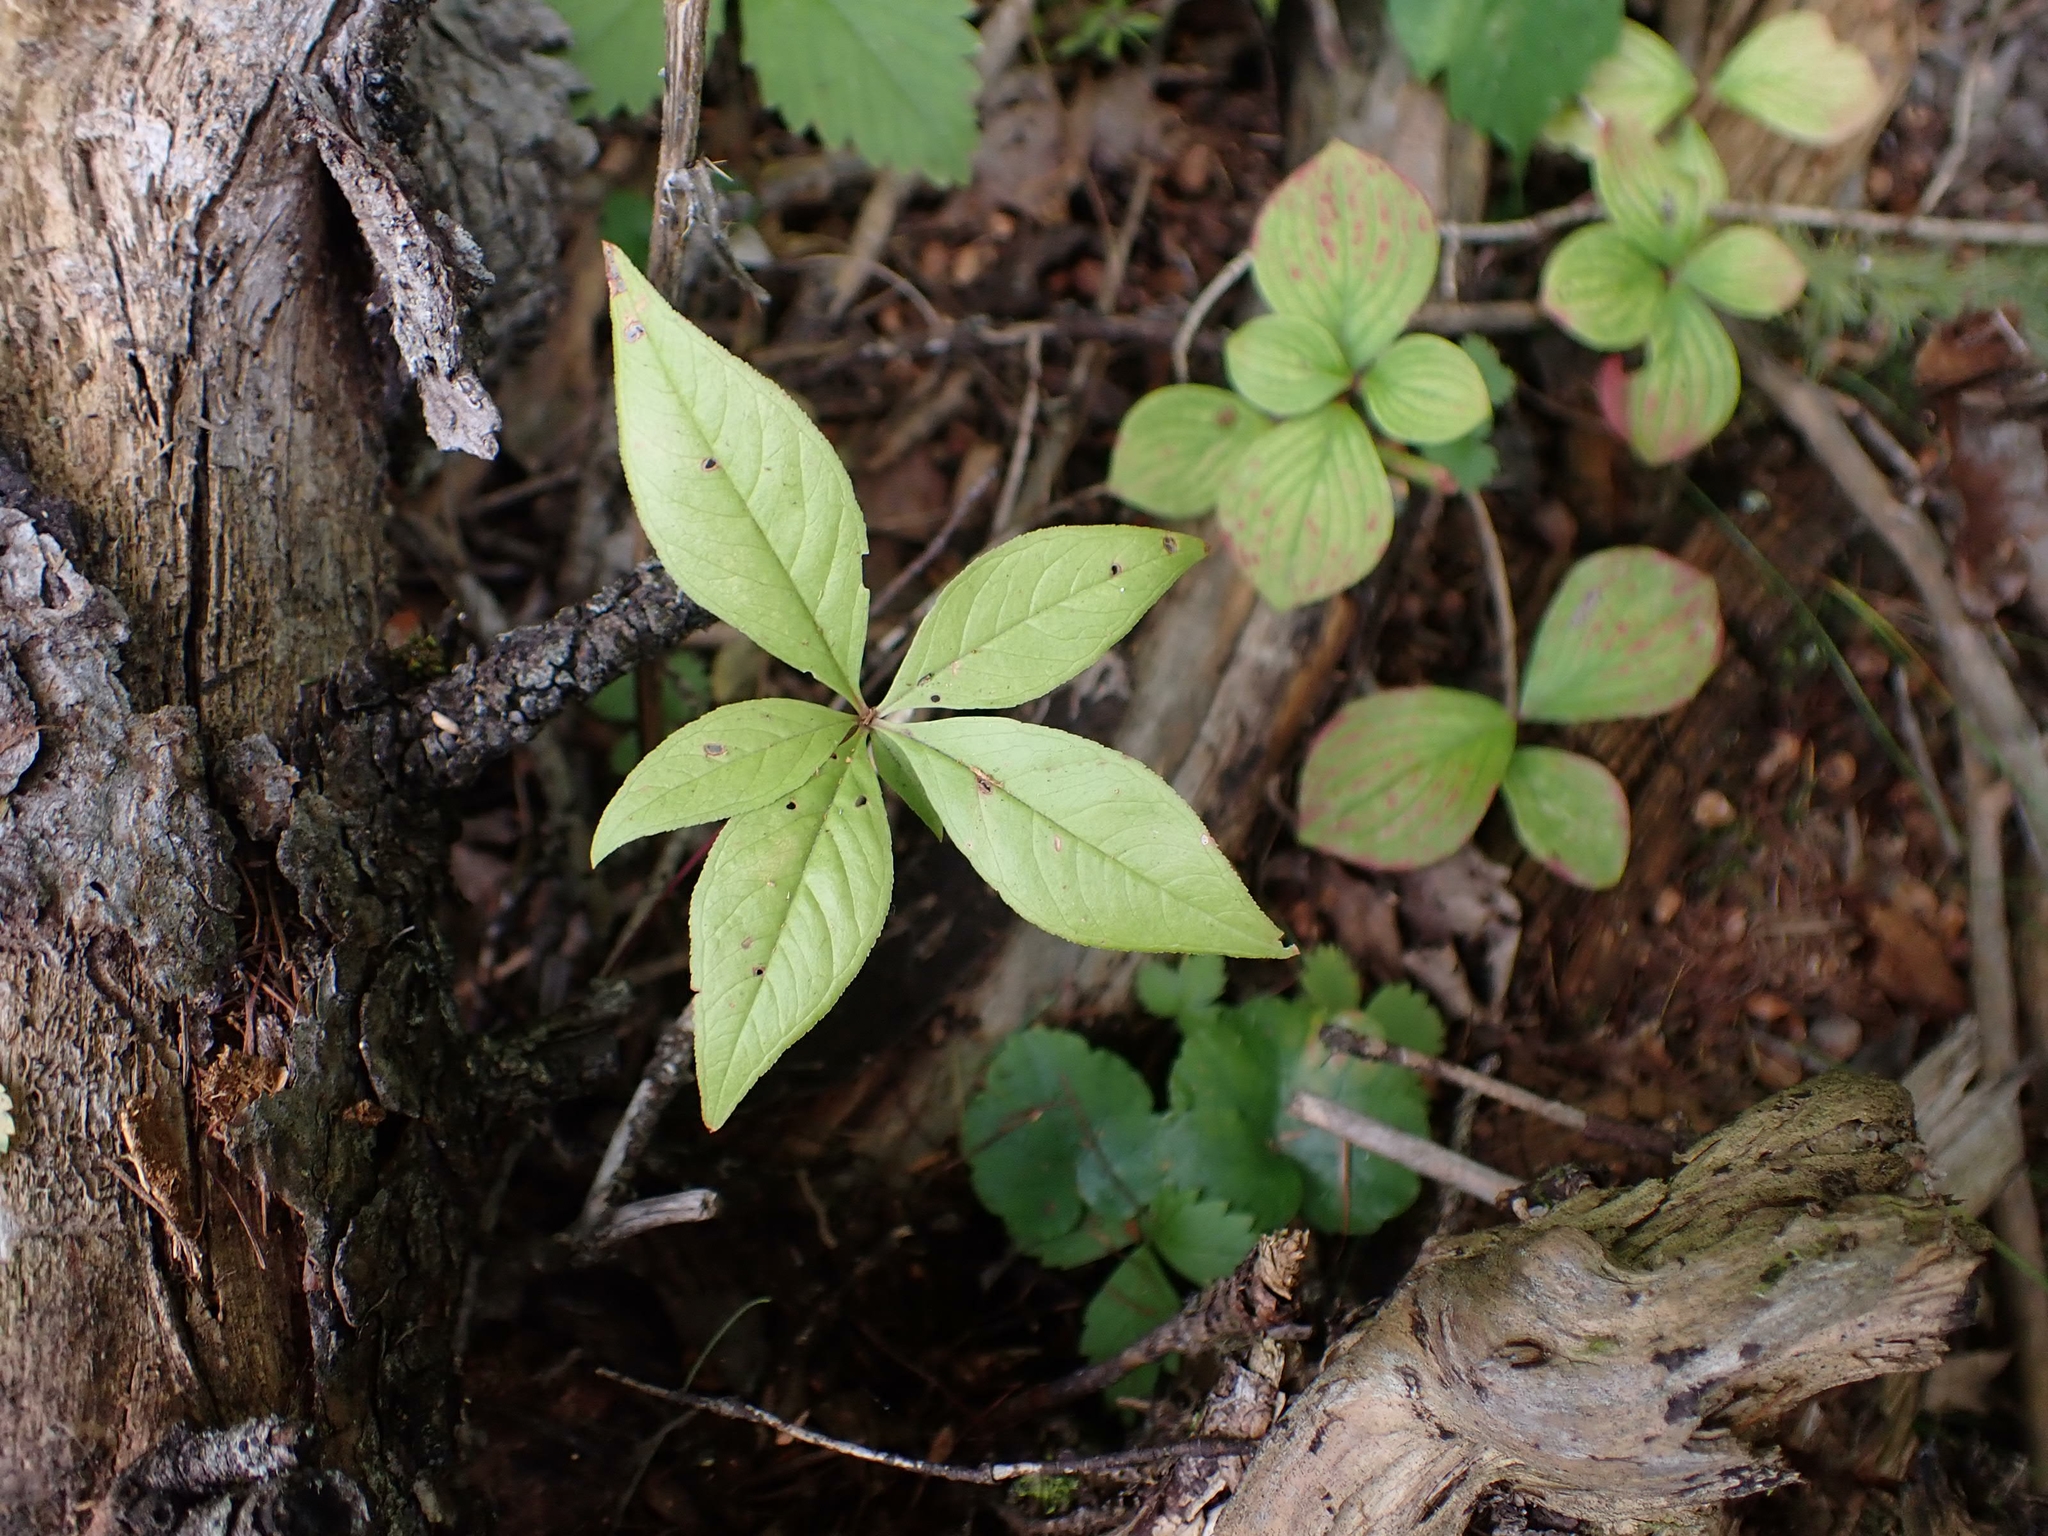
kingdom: Plantae
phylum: Tracheophyta
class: Magnoliopsida
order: Ericales
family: Primulaceae
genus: Lysimachia
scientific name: Lysimachia borealis
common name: American starflower
